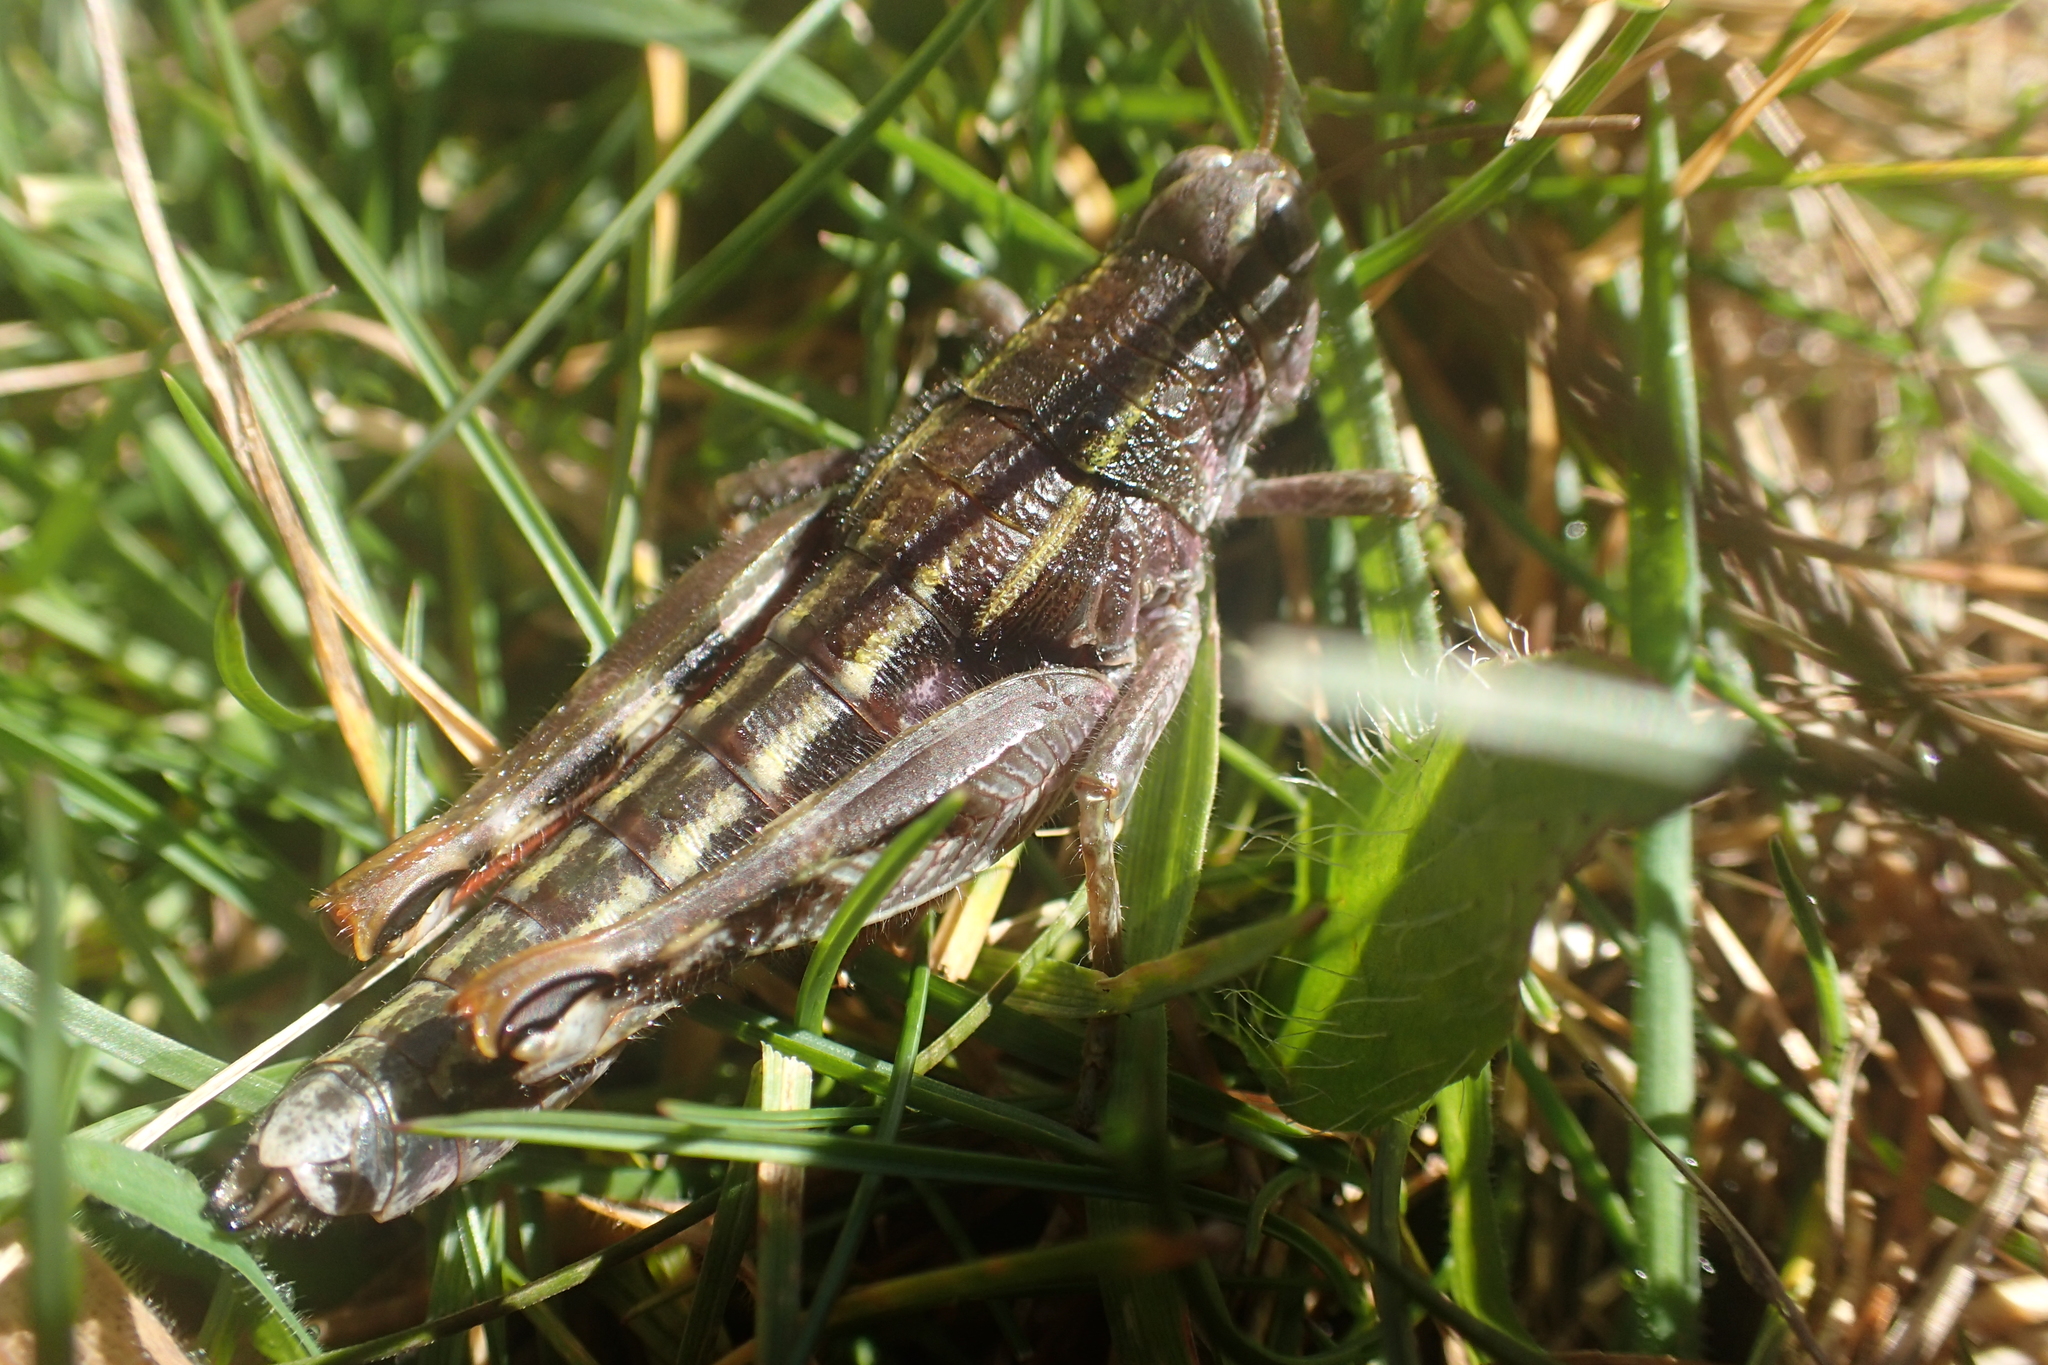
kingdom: Animalia
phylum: Arthropoda
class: Insecta
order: Orthoptera
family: Acrididae
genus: Sigaus
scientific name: Sigaus
